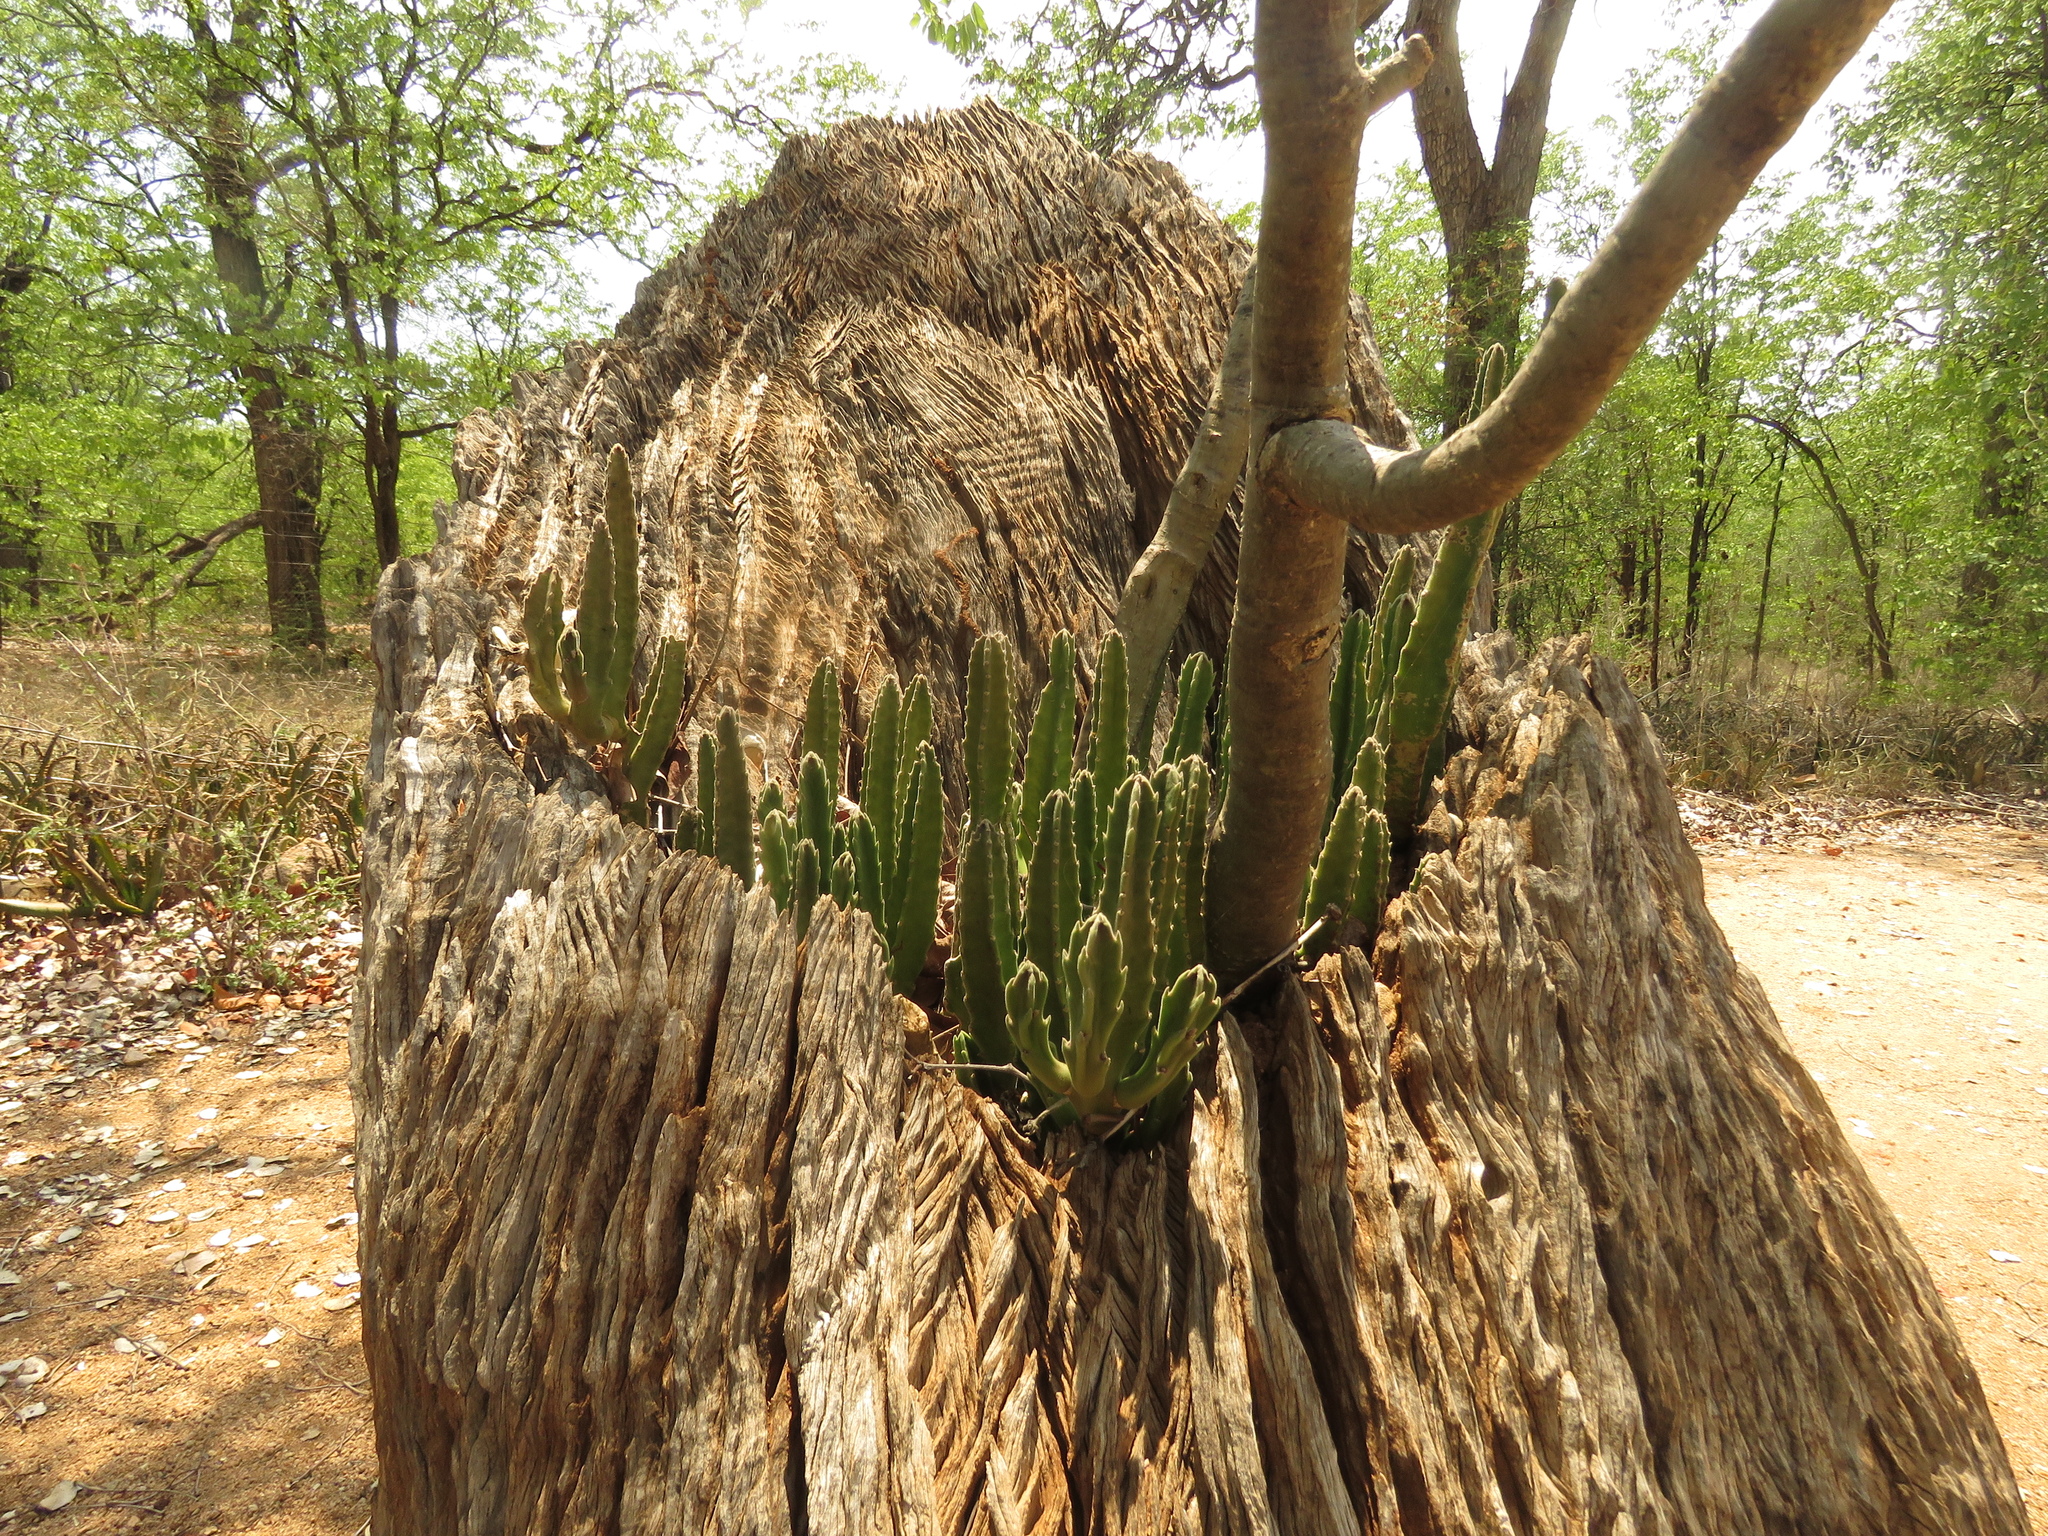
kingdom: Plantae
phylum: Tracheophyta
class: Magnoliopsida
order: Gentianales
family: Apocynaceae
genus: Ceropegia
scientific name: Ceropegia gigantea
